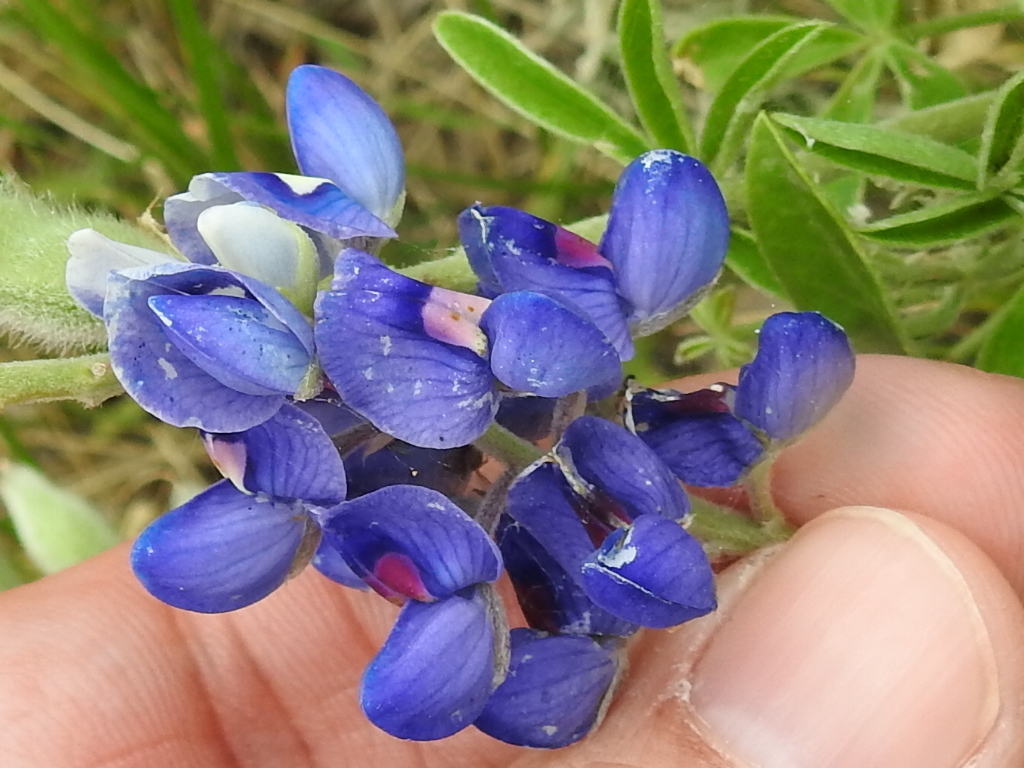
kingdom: Plantae
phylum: Tracheophyta
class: Magnoliopsida
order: Fabales
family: Fabaceae
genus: Lupinus
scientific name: Lupinus texensis
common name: Texas bluebonnet
